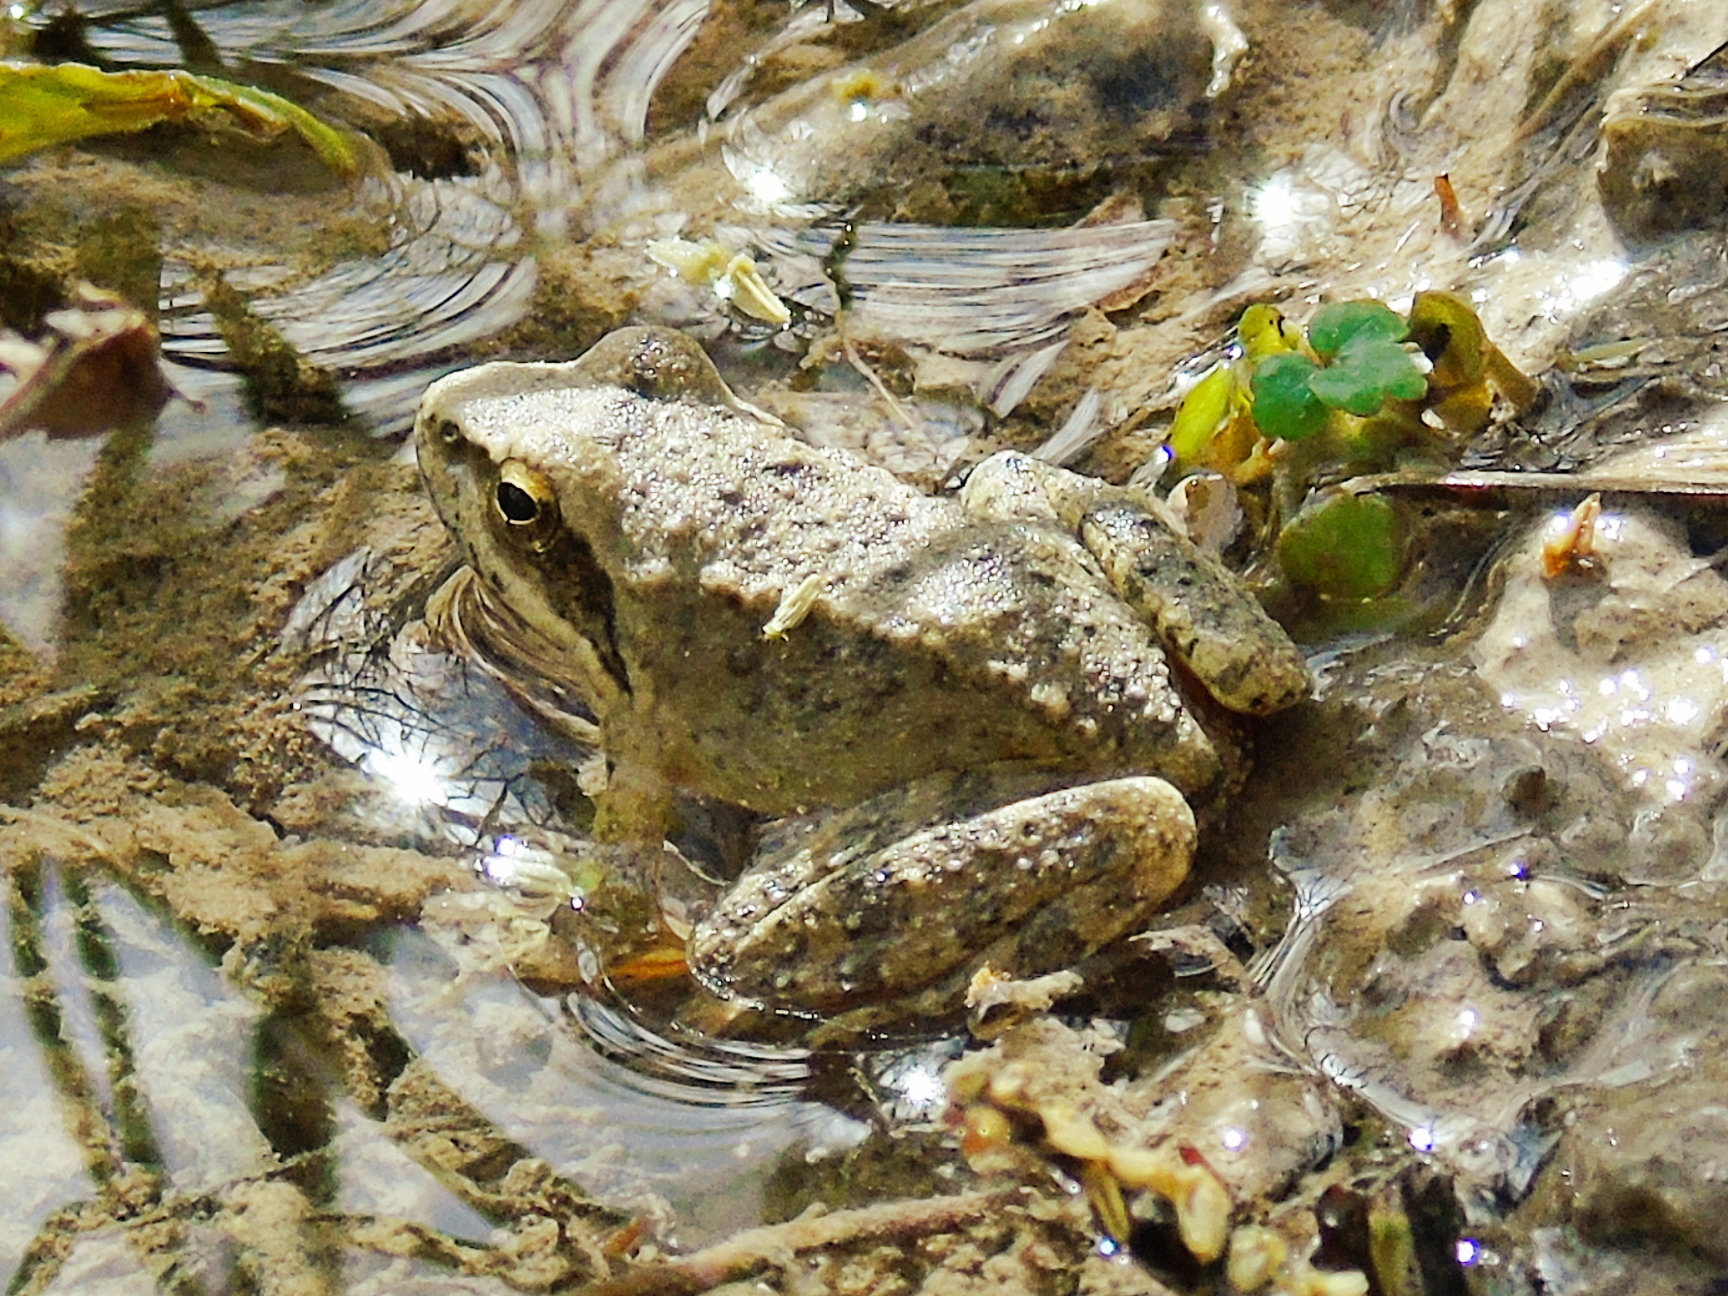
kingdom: Animalia
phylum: Chordata
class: Amphibia
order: Anura
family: Ranidae
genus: Rana
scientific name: Rana graeca
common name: Greek stream frog
